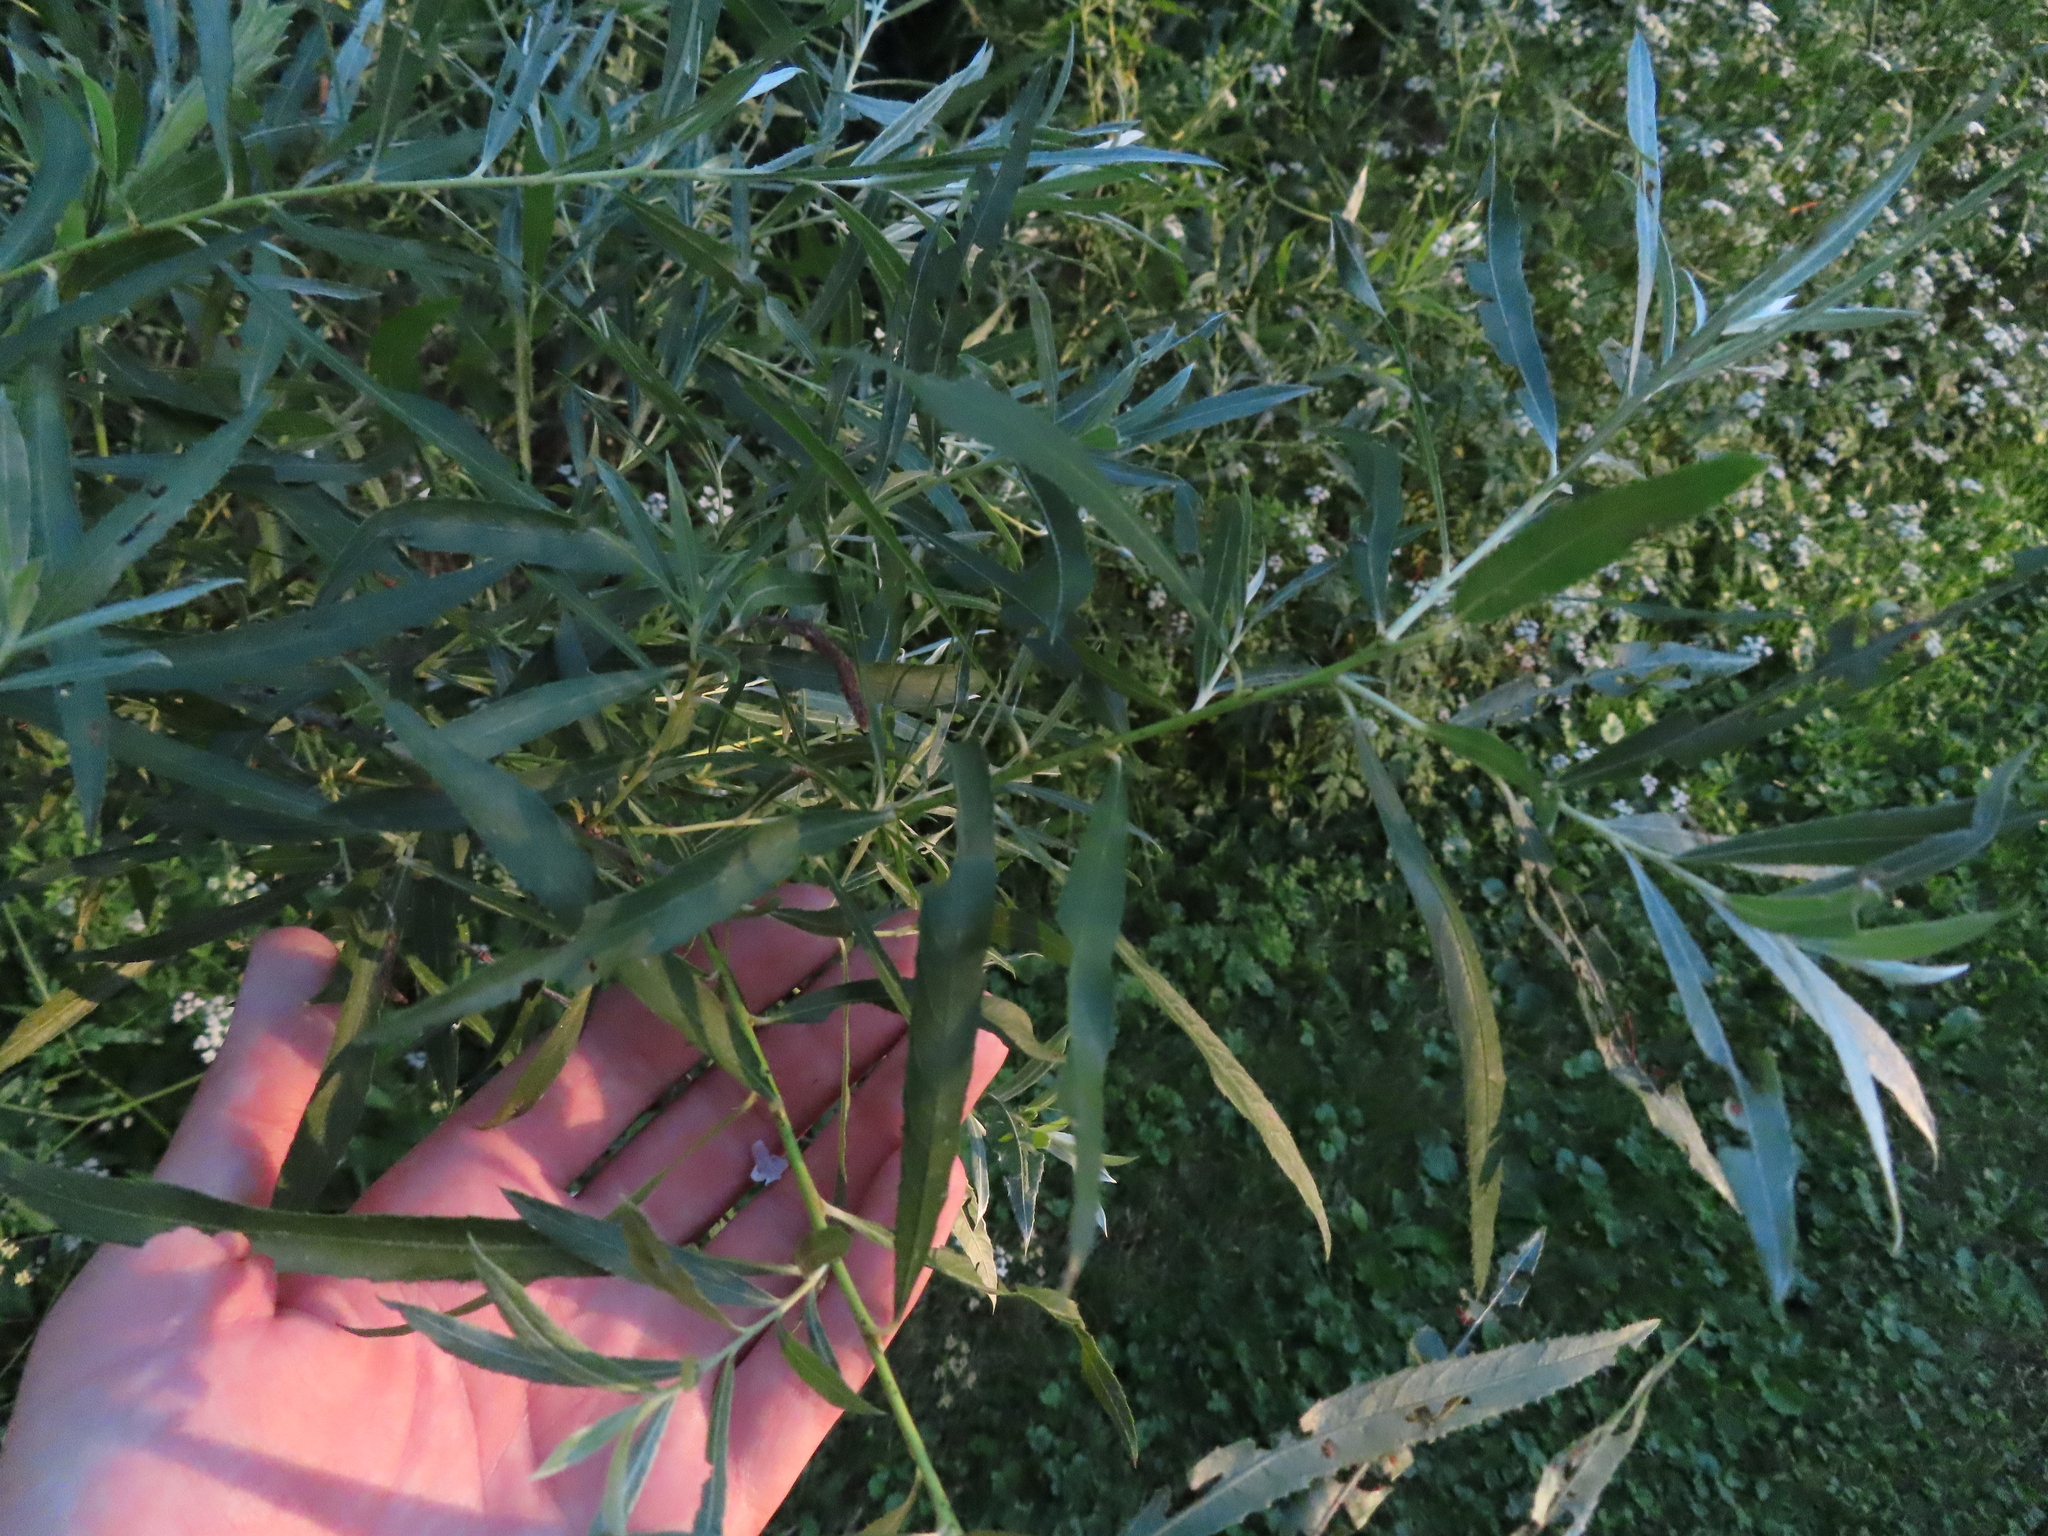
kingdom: Plantae
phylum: Tracheophyta
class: Magnoliopsida
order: Malpighiales
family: Salicaceae
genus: Salix
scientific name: Salix interior
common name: Sandbar willow
